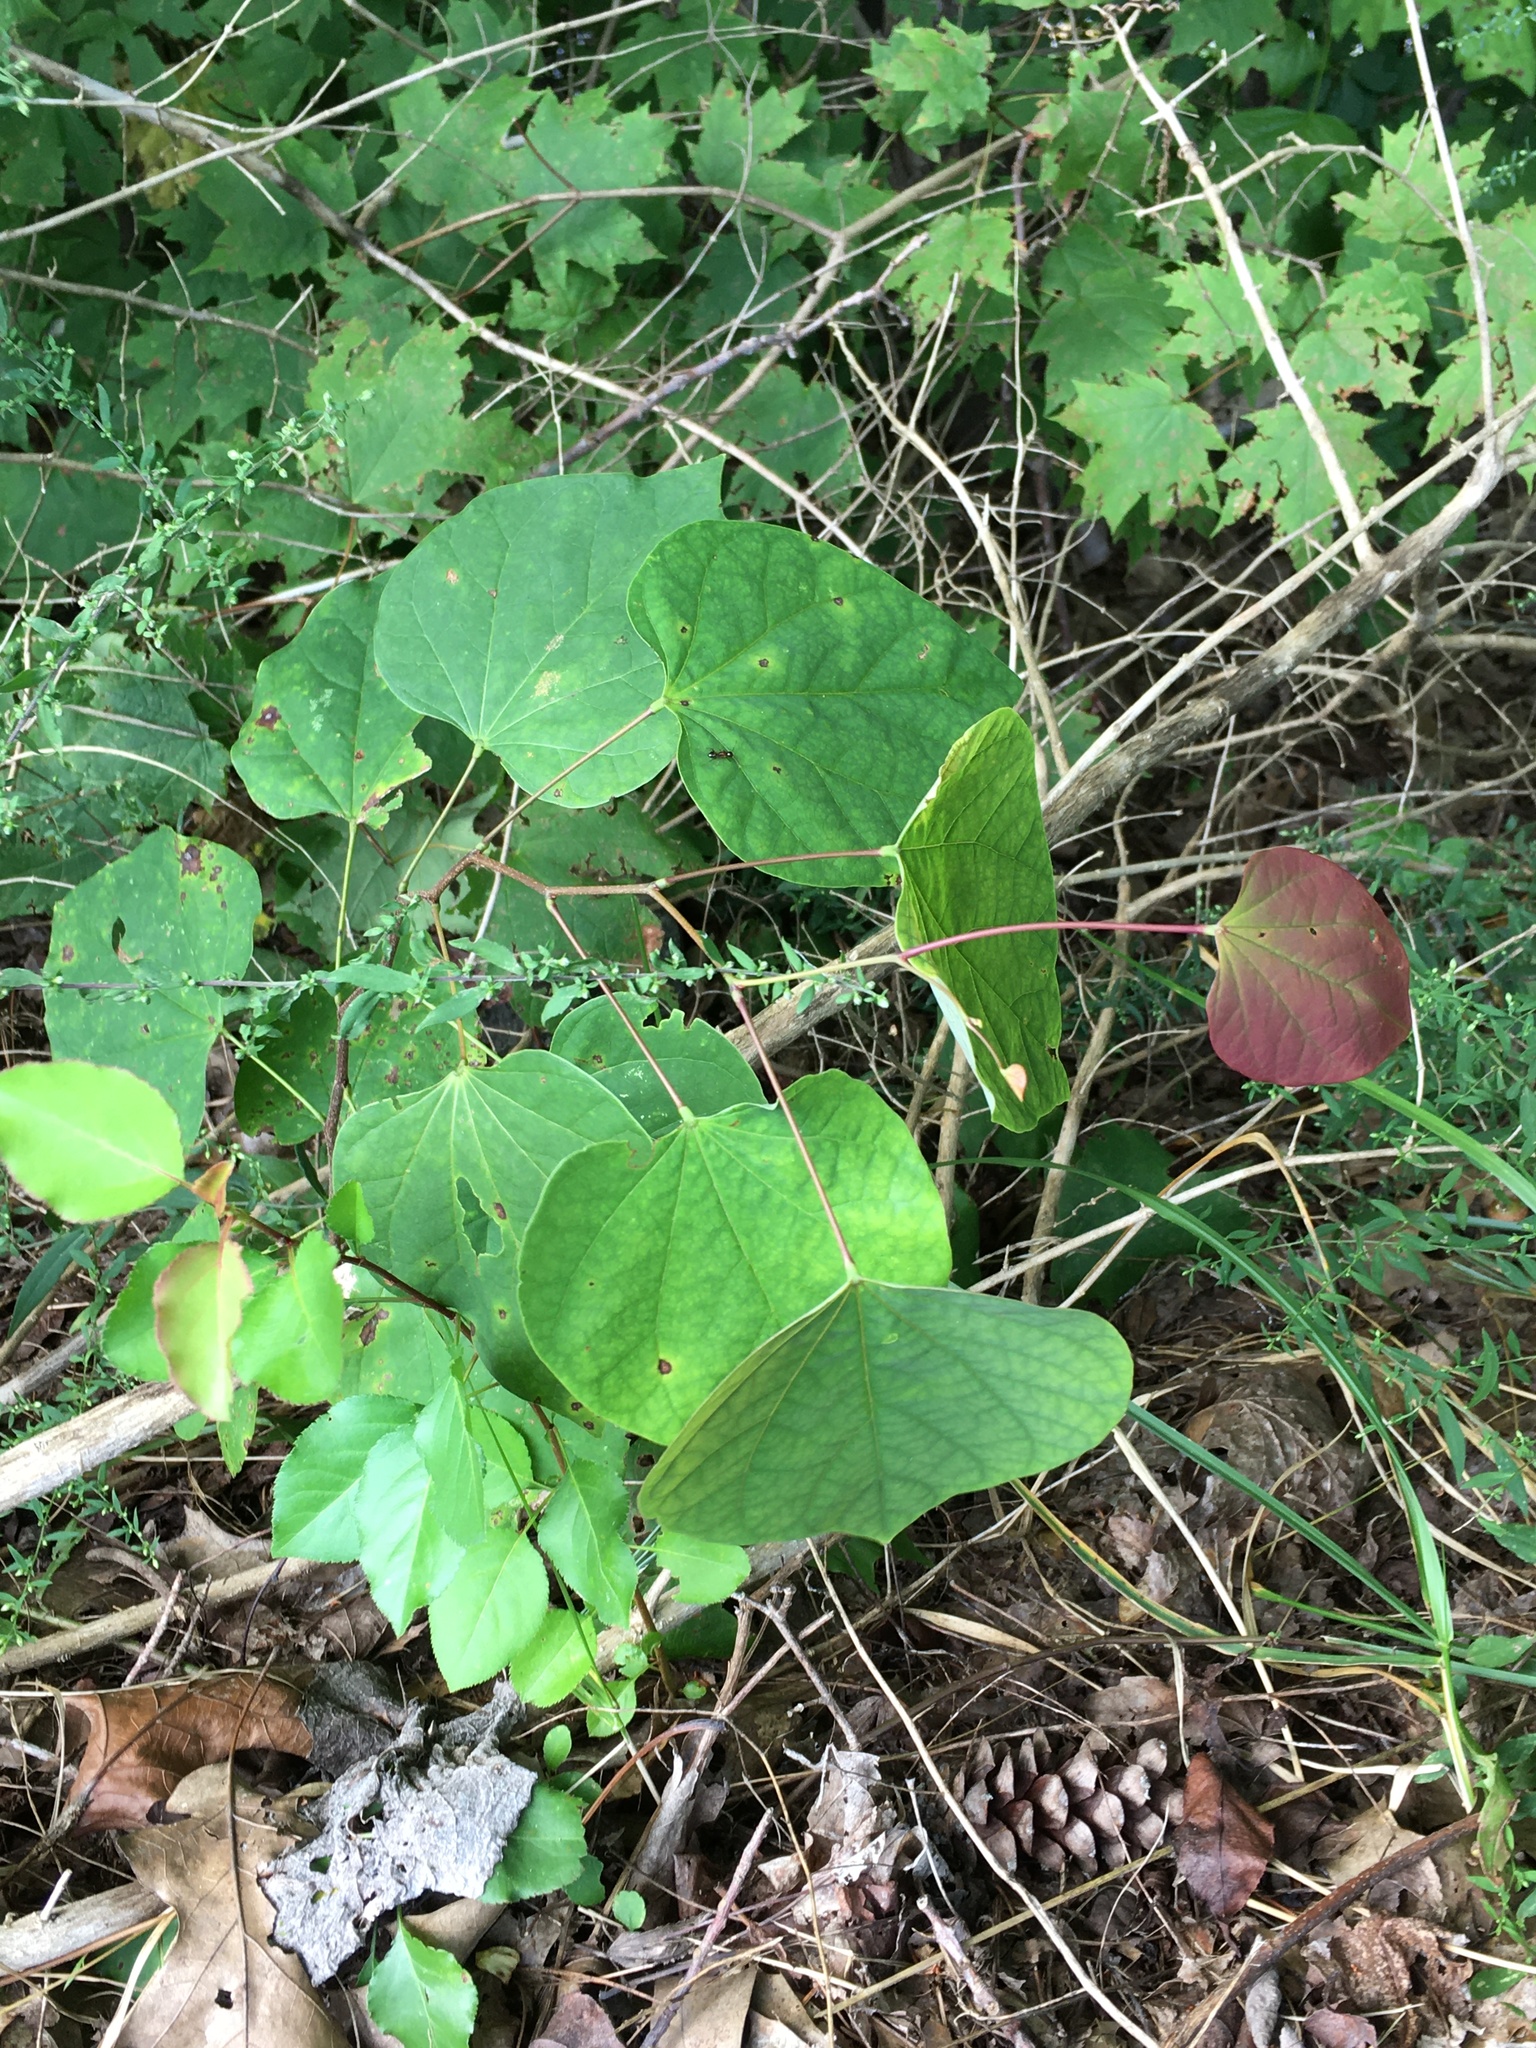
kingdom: Plantae
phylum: Tracheophyta
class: Magnoliopsida
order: Fabales
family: Fabaceae
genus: Cercis
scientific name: Cercis canadensis
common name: Eastern redbud
